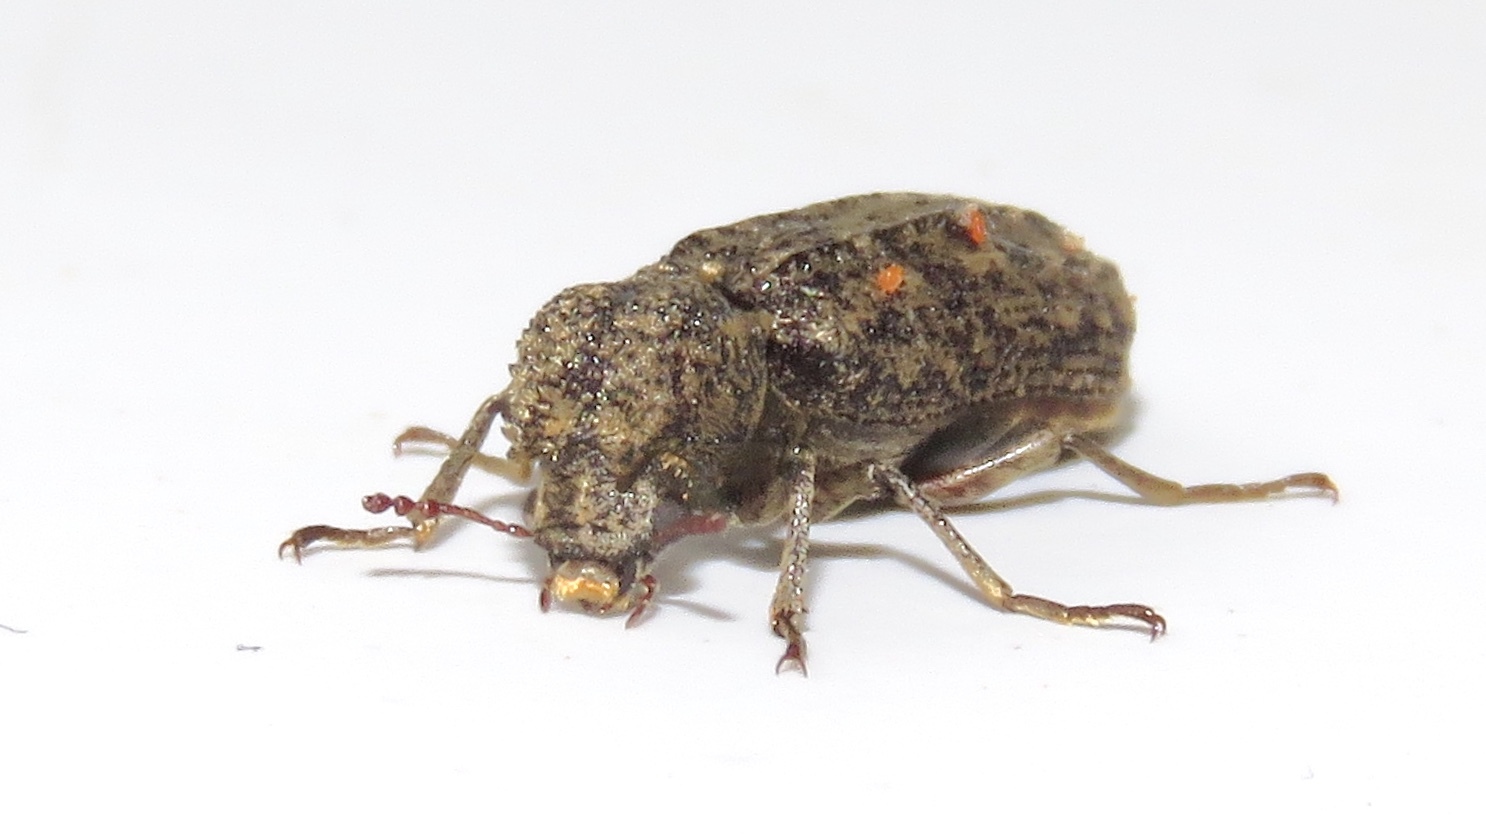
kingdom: Animalia
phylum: Arthropoda
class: Insecta
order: Coleoptera
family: Bostrichidae
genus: Lichenophanes
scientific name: Lichenophanes bicornis
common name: Two-horned powder-post beetle
